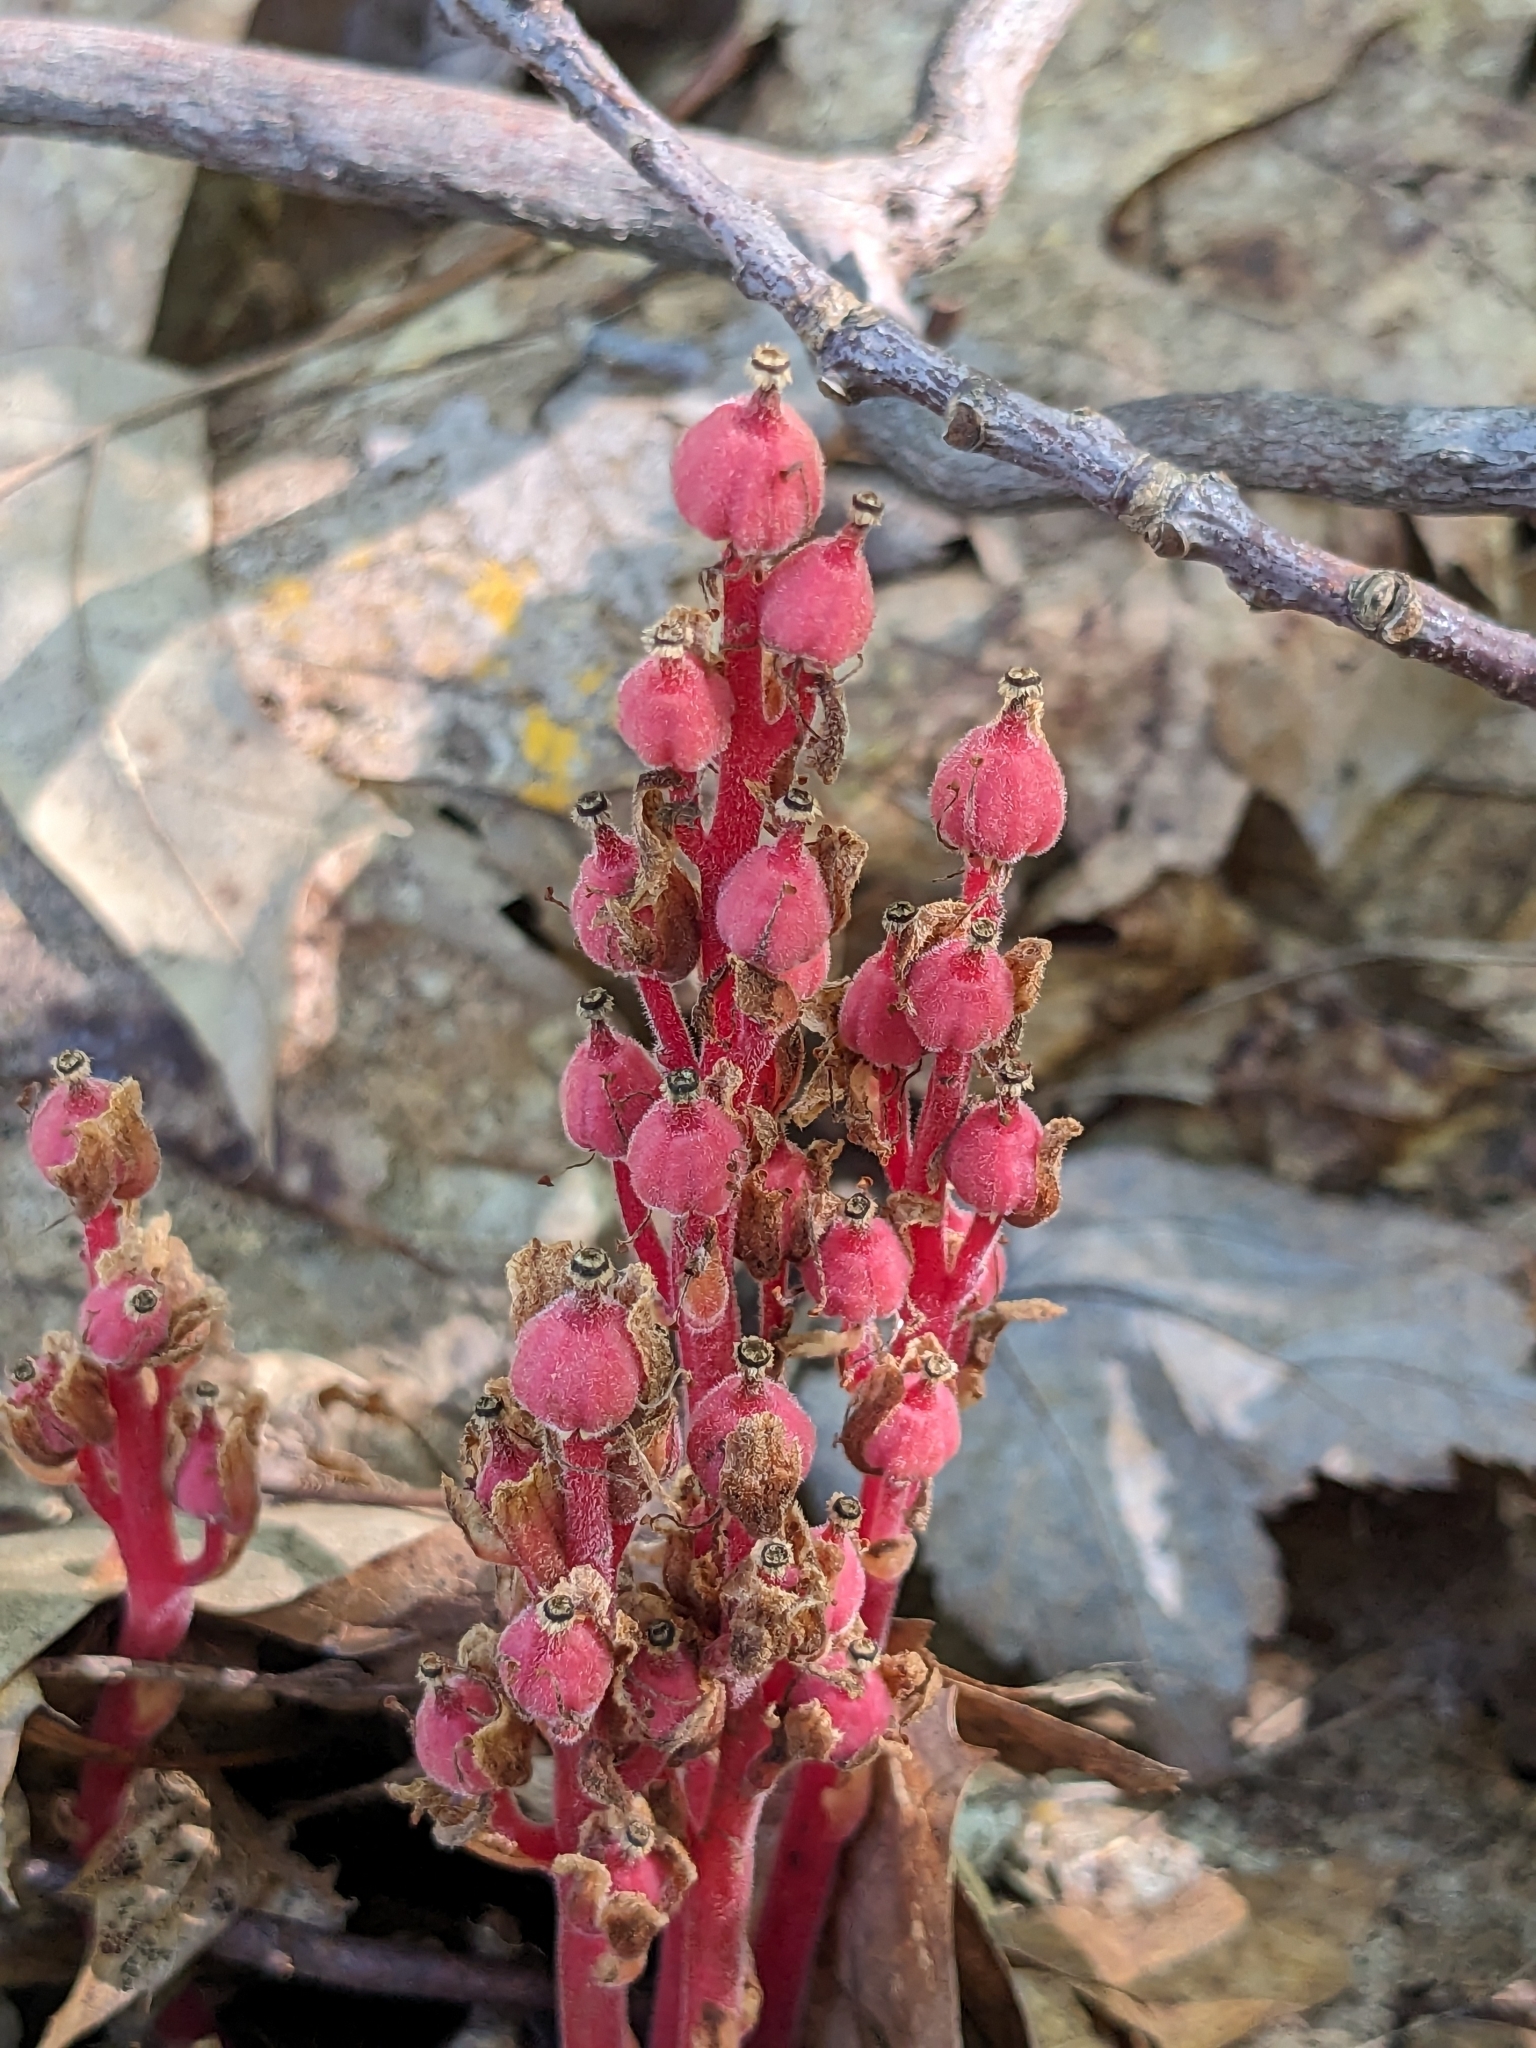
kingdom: Plantae
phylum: Tracheophyta
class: Magnoliopsida
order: Ericales
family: Ericaceae
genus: Hypopitys
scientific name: Hypopitys monotropa
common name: Yellow bird's-nest
